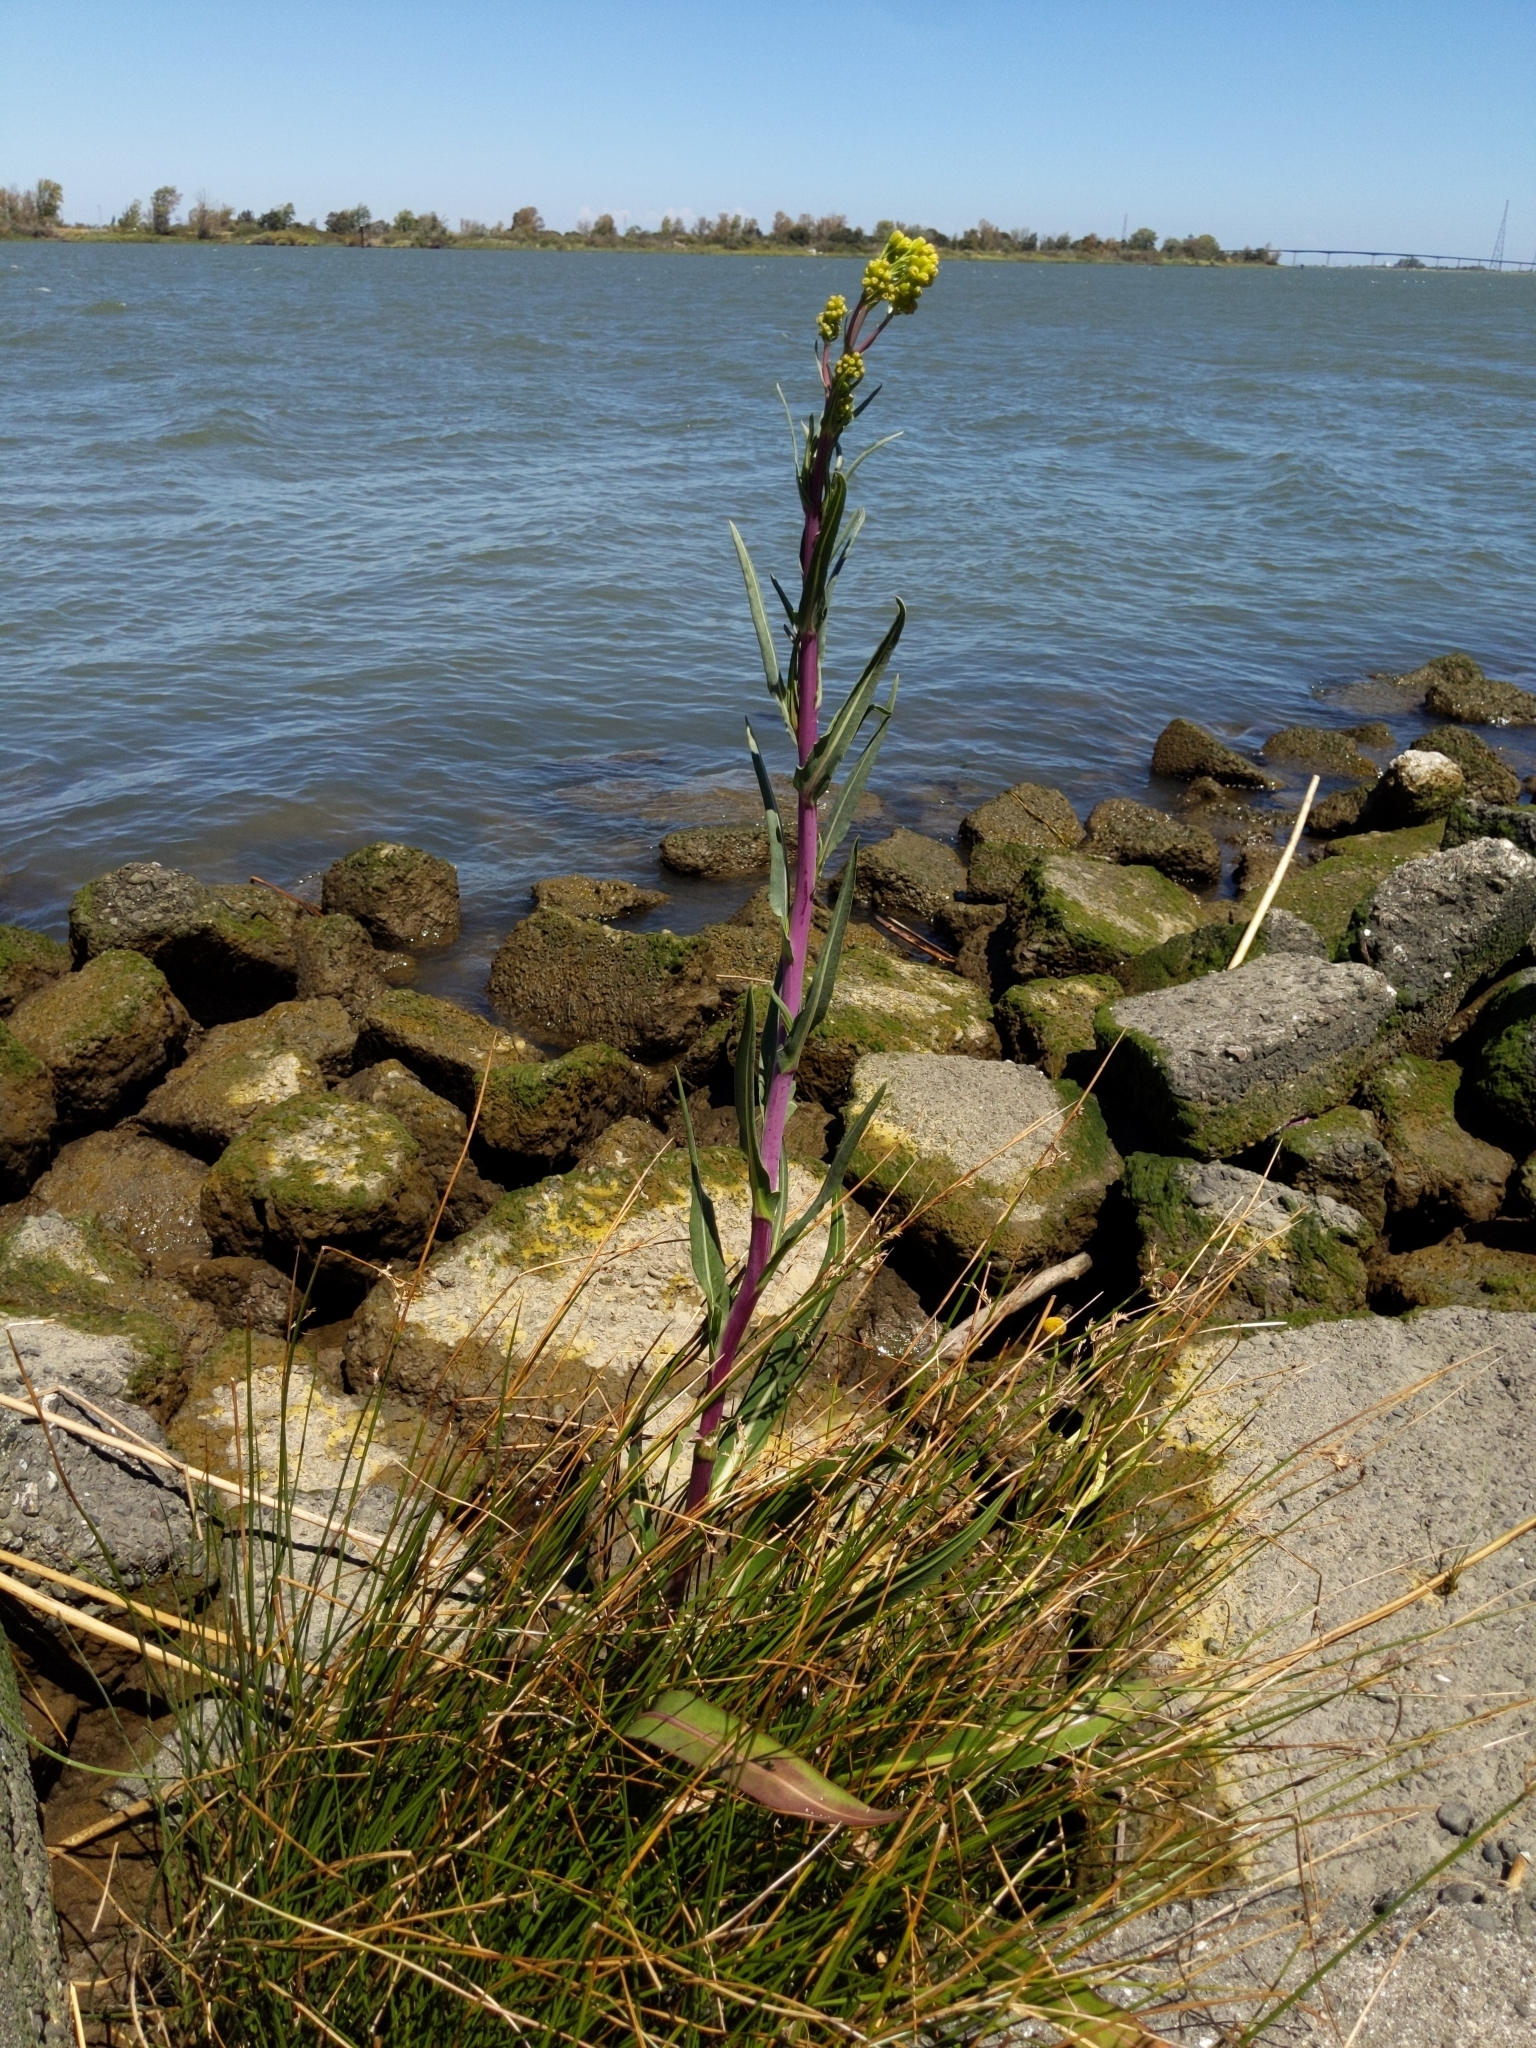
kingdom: Plantae
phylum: Tracheophyta
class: Magnoliopsida
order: Asterales
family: Asteraceae
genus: Senecio
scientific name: Senecio hydrophilus
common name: Water ragwort
